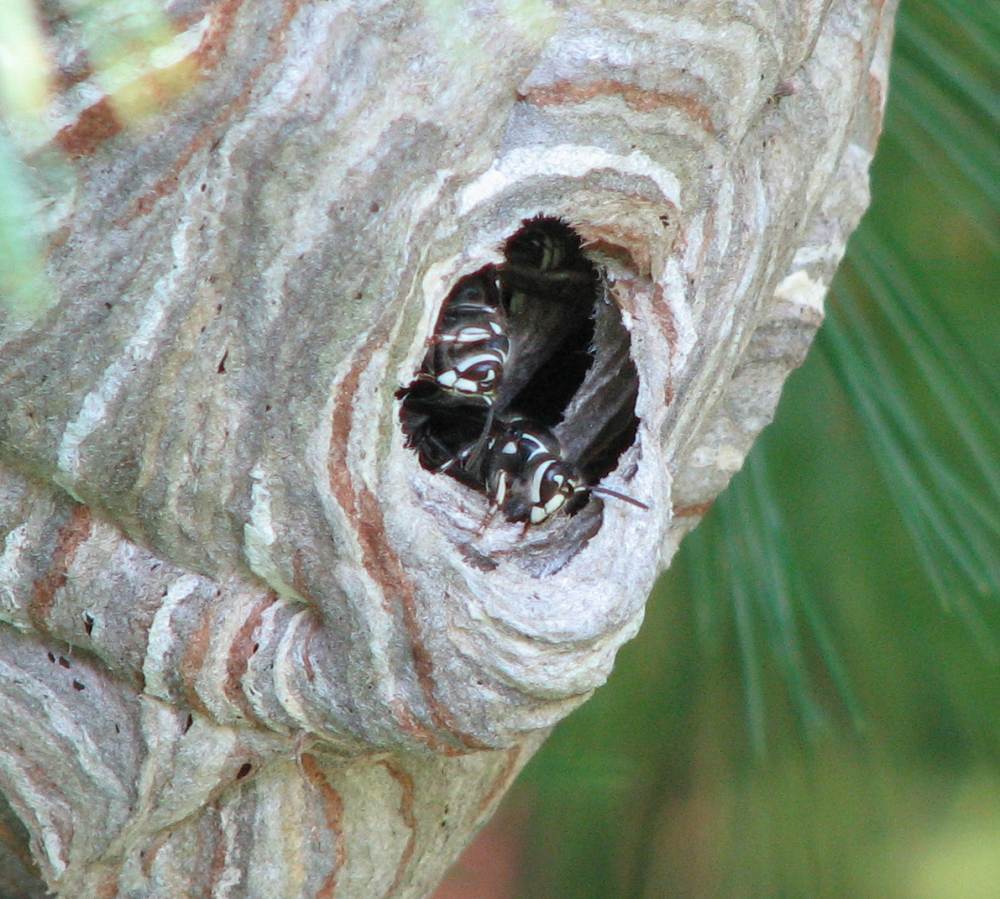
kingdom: Animalia
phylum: Arthropoda
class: Insecta
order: Hymenoptera
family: Vespidae
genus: Dolichovespula
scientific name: Dolichovespula maculata
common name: Bald-faced hornet
